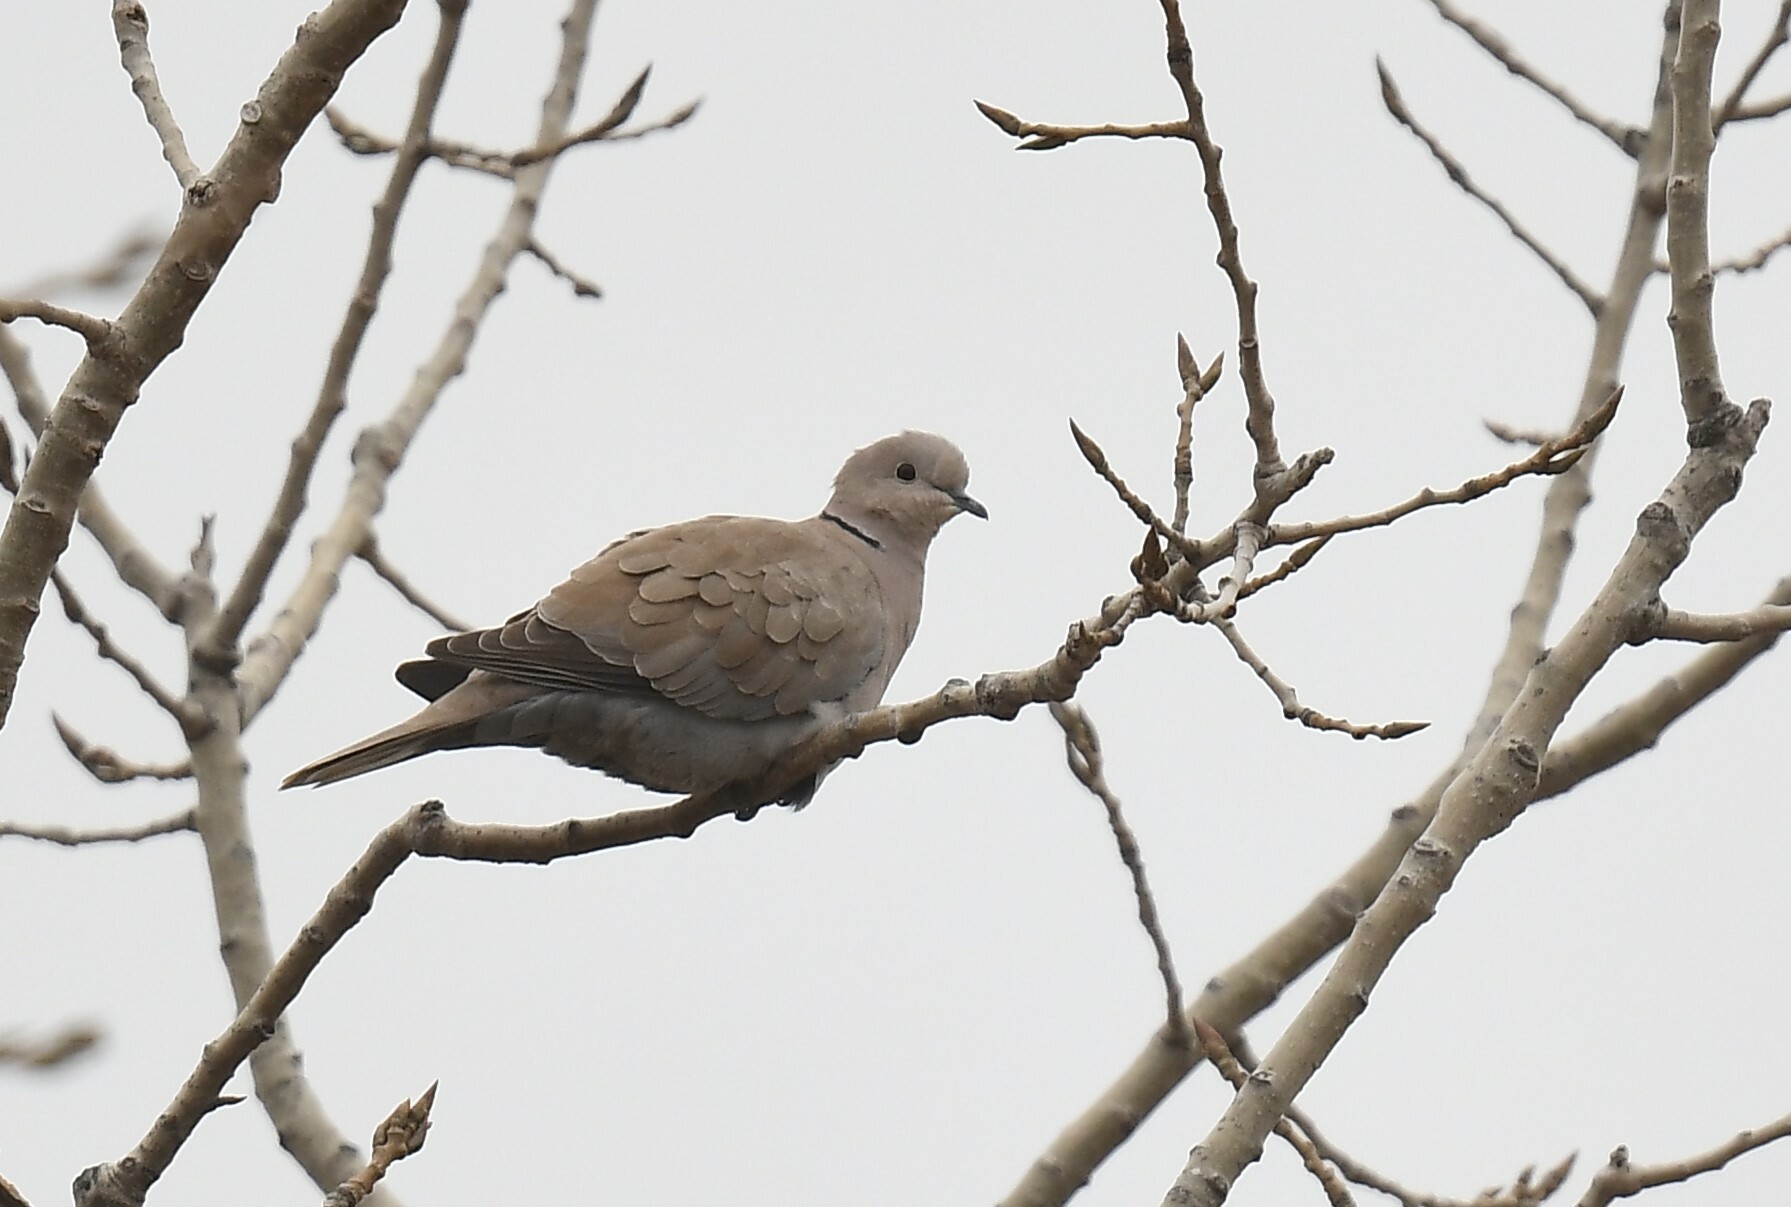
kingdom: Animalia
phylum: Chordata
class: Aves
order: Columbiformes
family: Columbidae
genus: Streptopelia
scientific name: Streptopelia decaocto
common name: Eurasian collared dove
